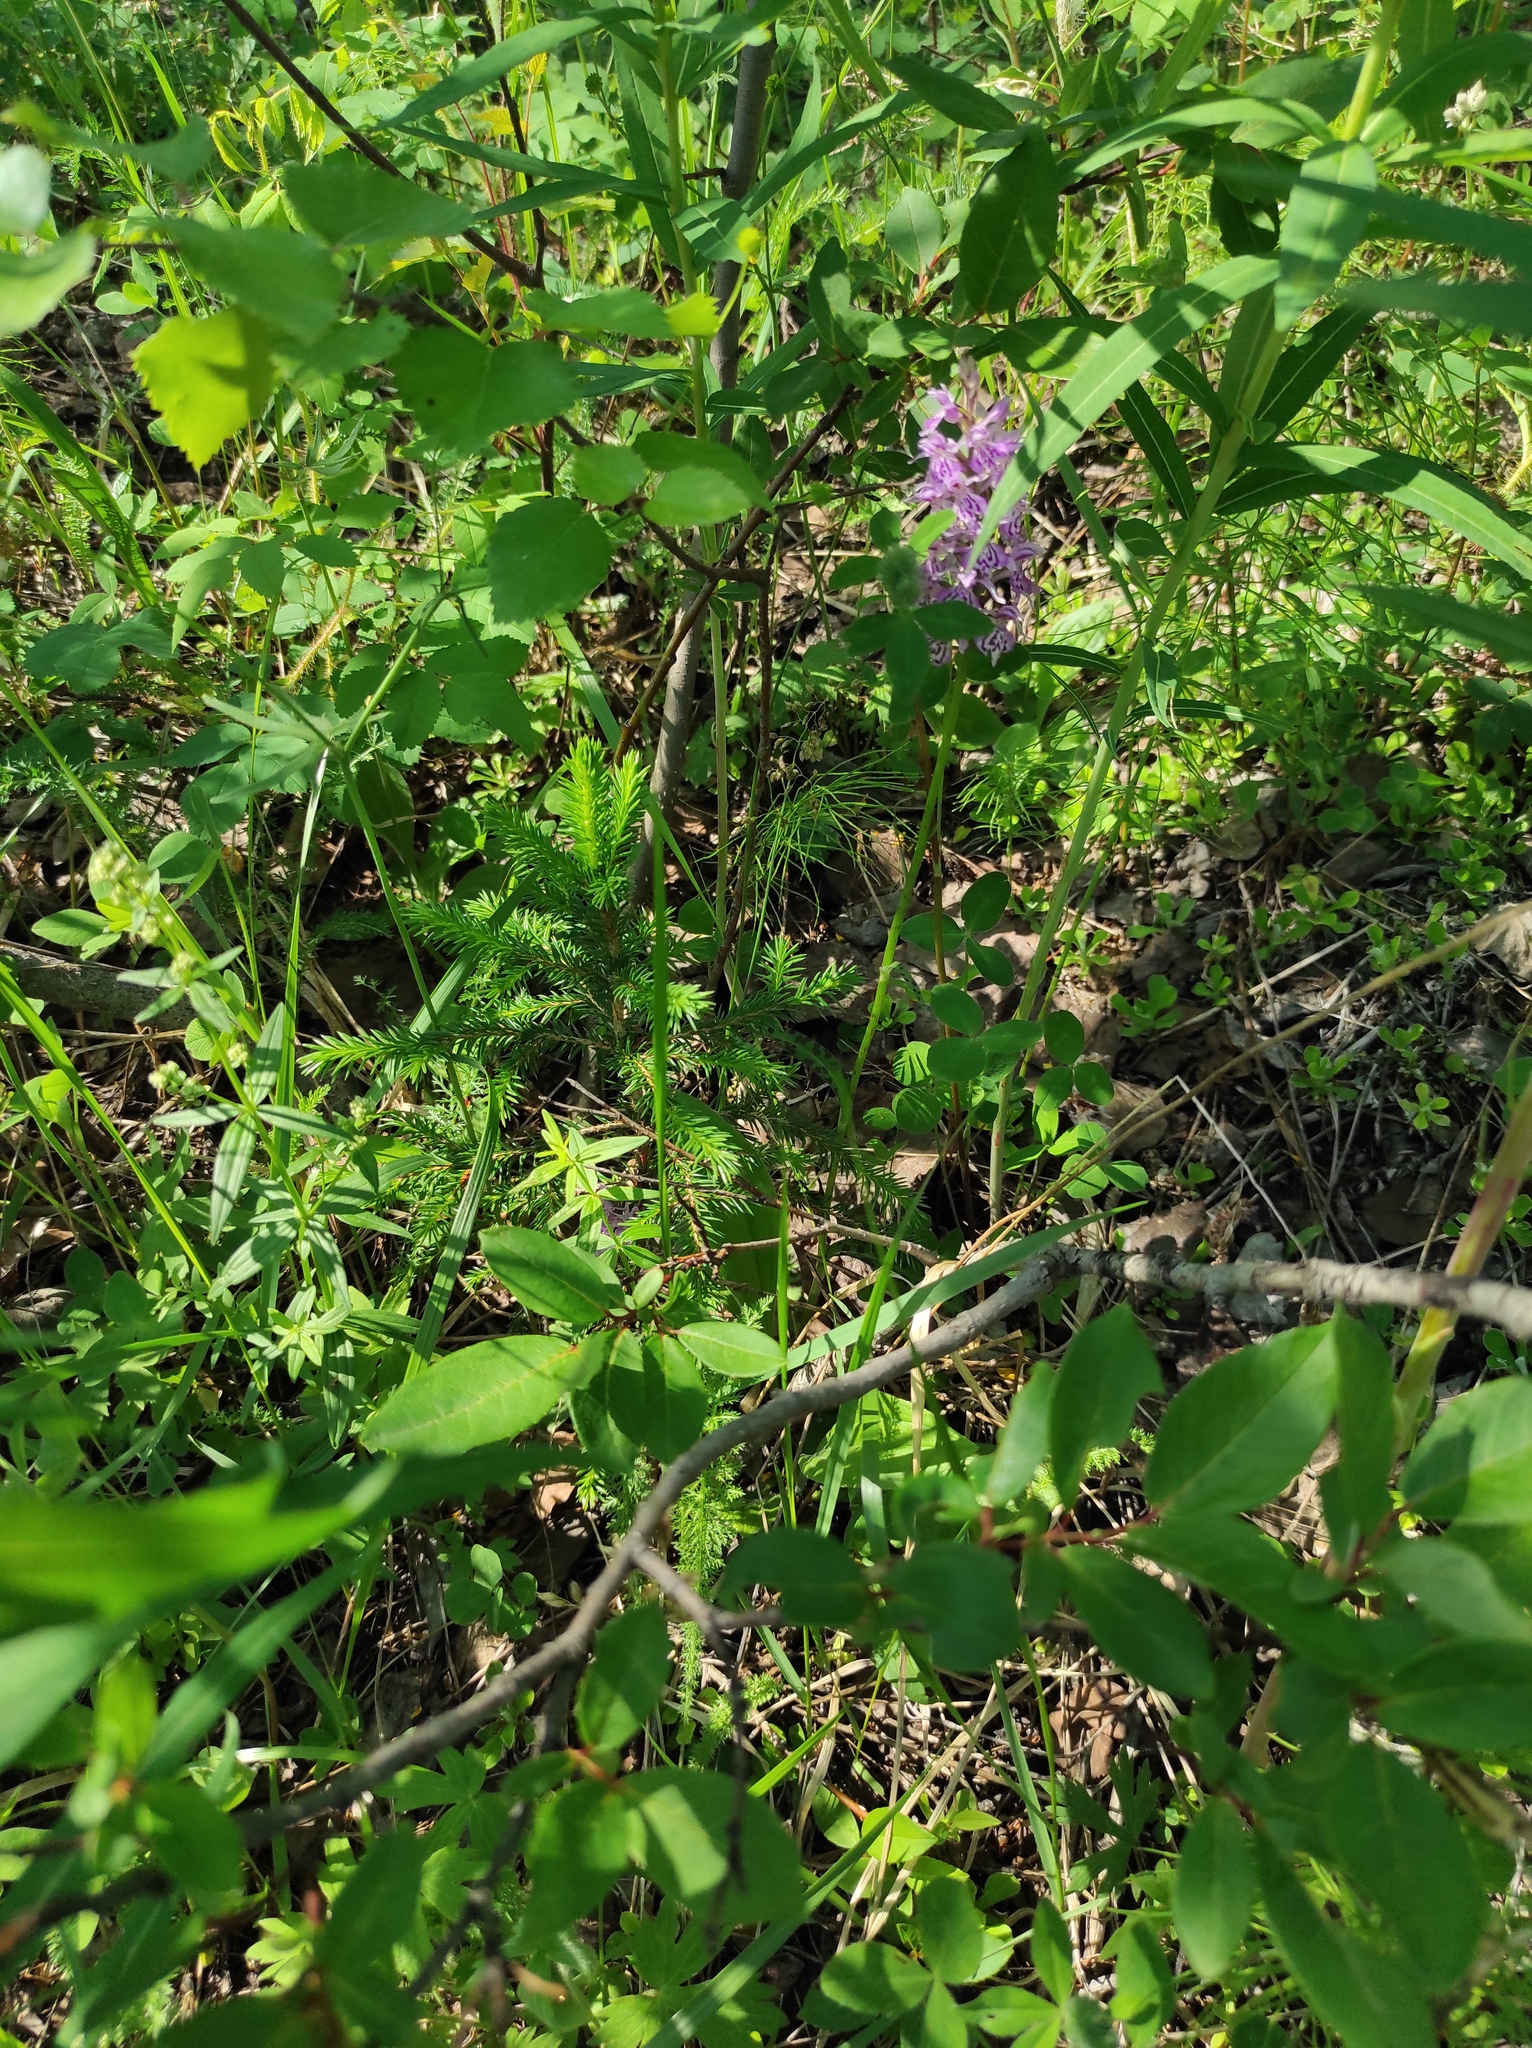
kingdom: Plantae
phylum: Tracheophyta
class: Liliopsida
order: Asparagales
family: Orchidaceae
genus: Dactylorhiza
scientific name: Dactylorhiza maculata
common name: Heath spotted-orchid
